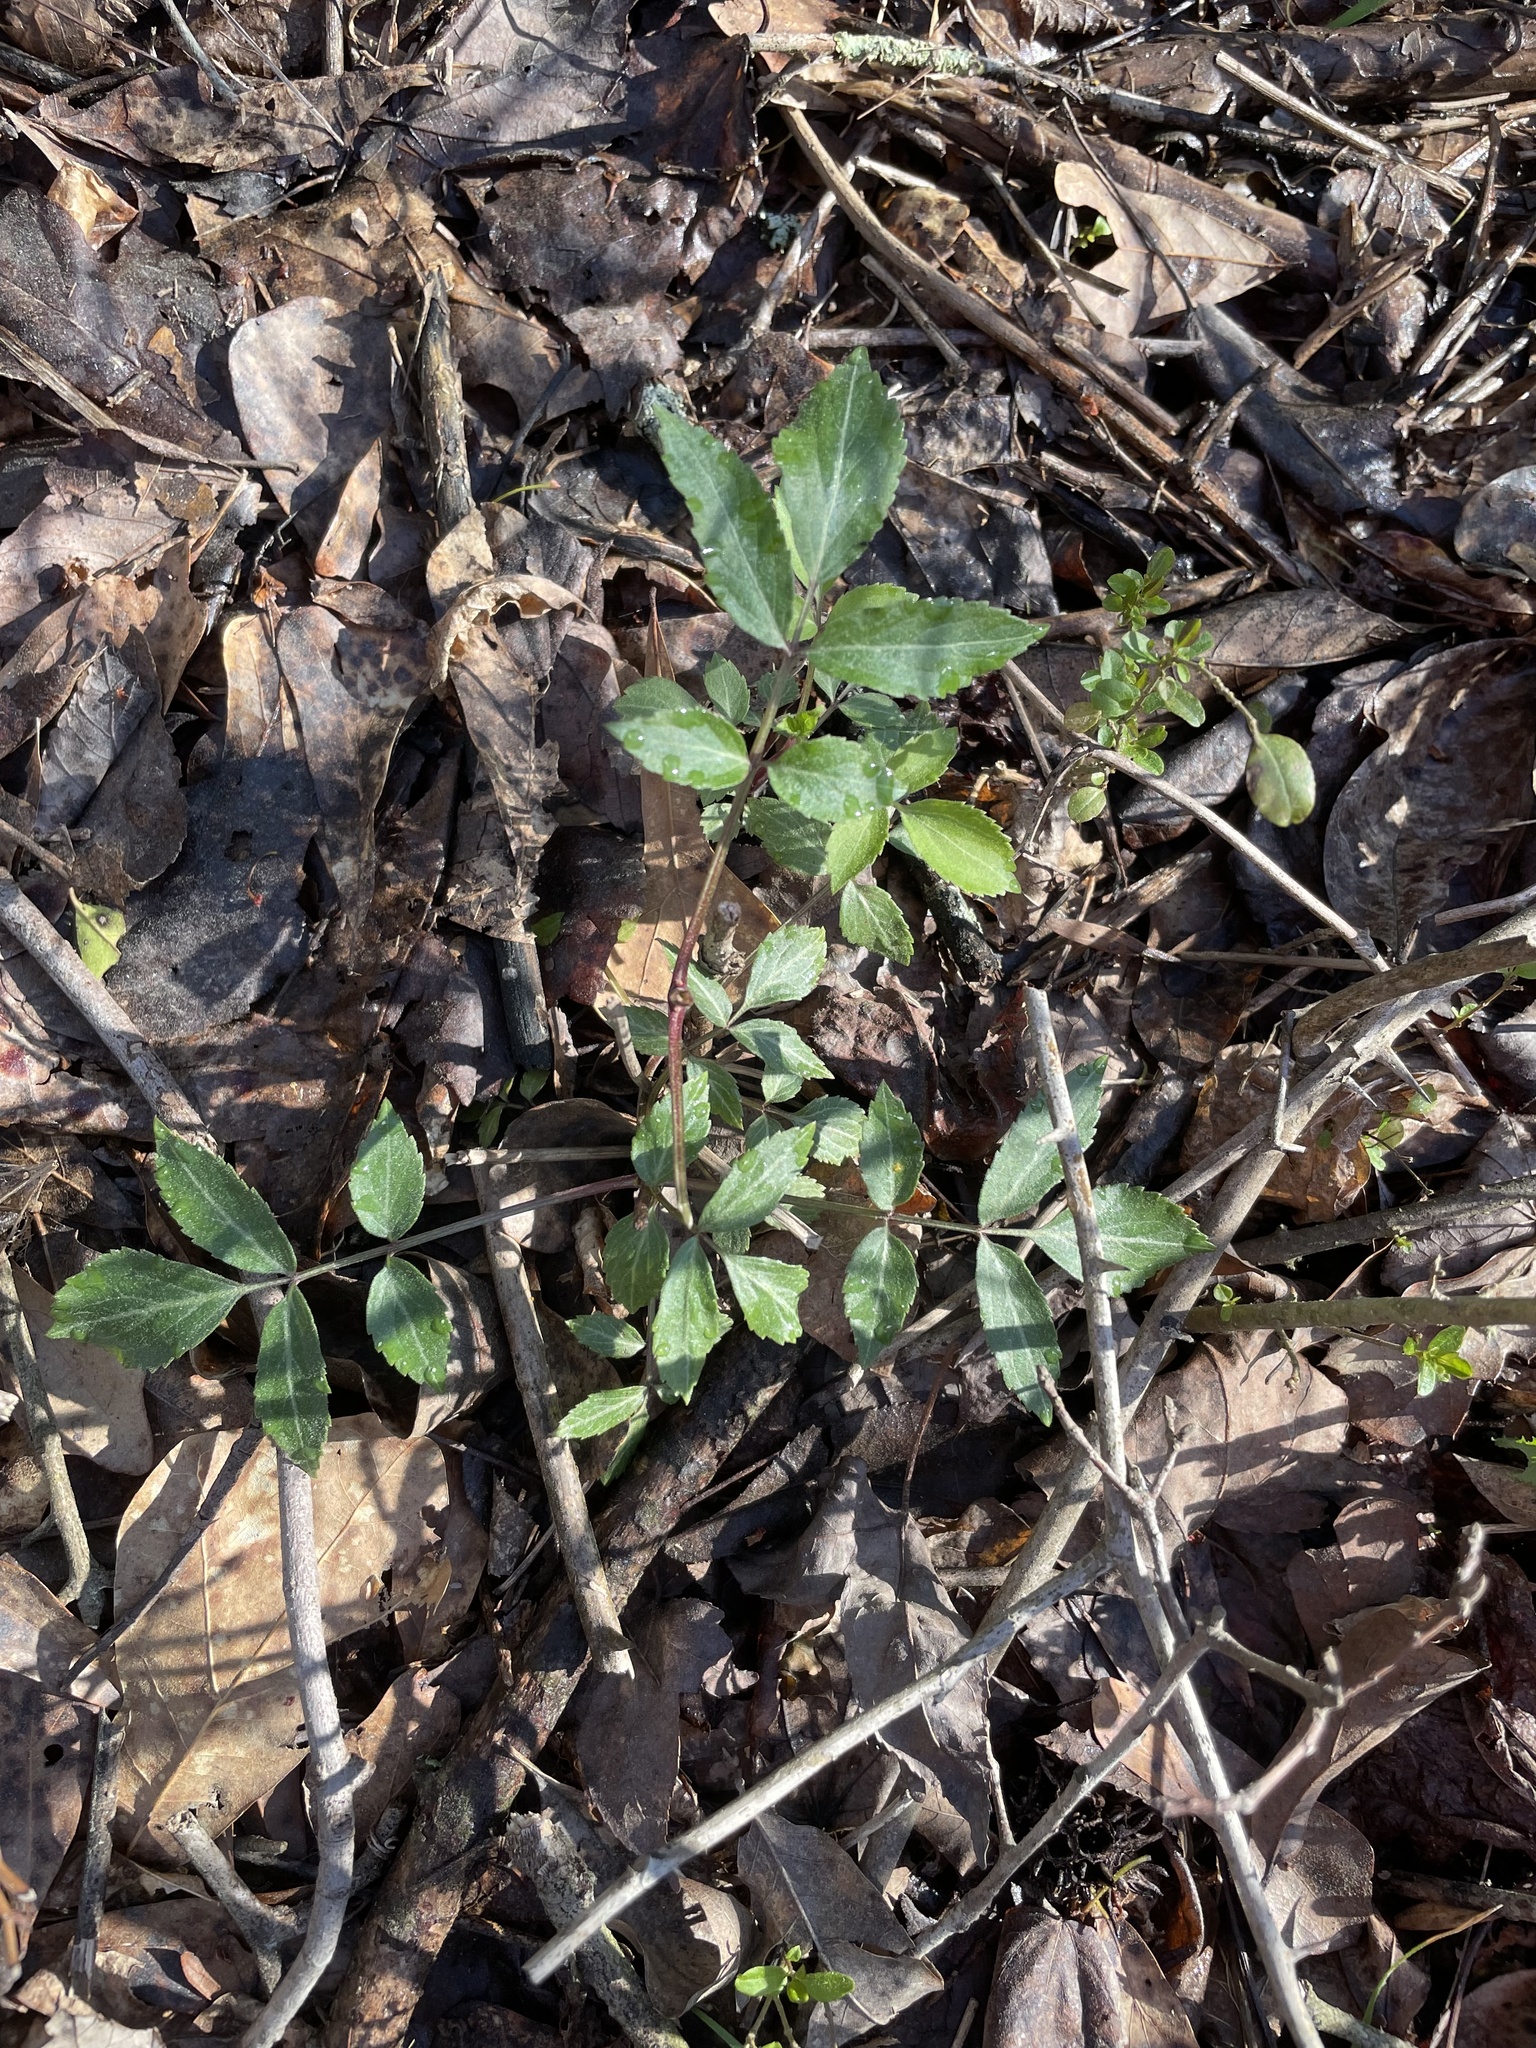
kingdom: Plantae
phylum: Tracheophyta
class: Magnoliopsida
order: Dipsacales
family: Viburnaceae
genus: Sambucus
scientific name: Sambucus canadensis
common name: American elder
